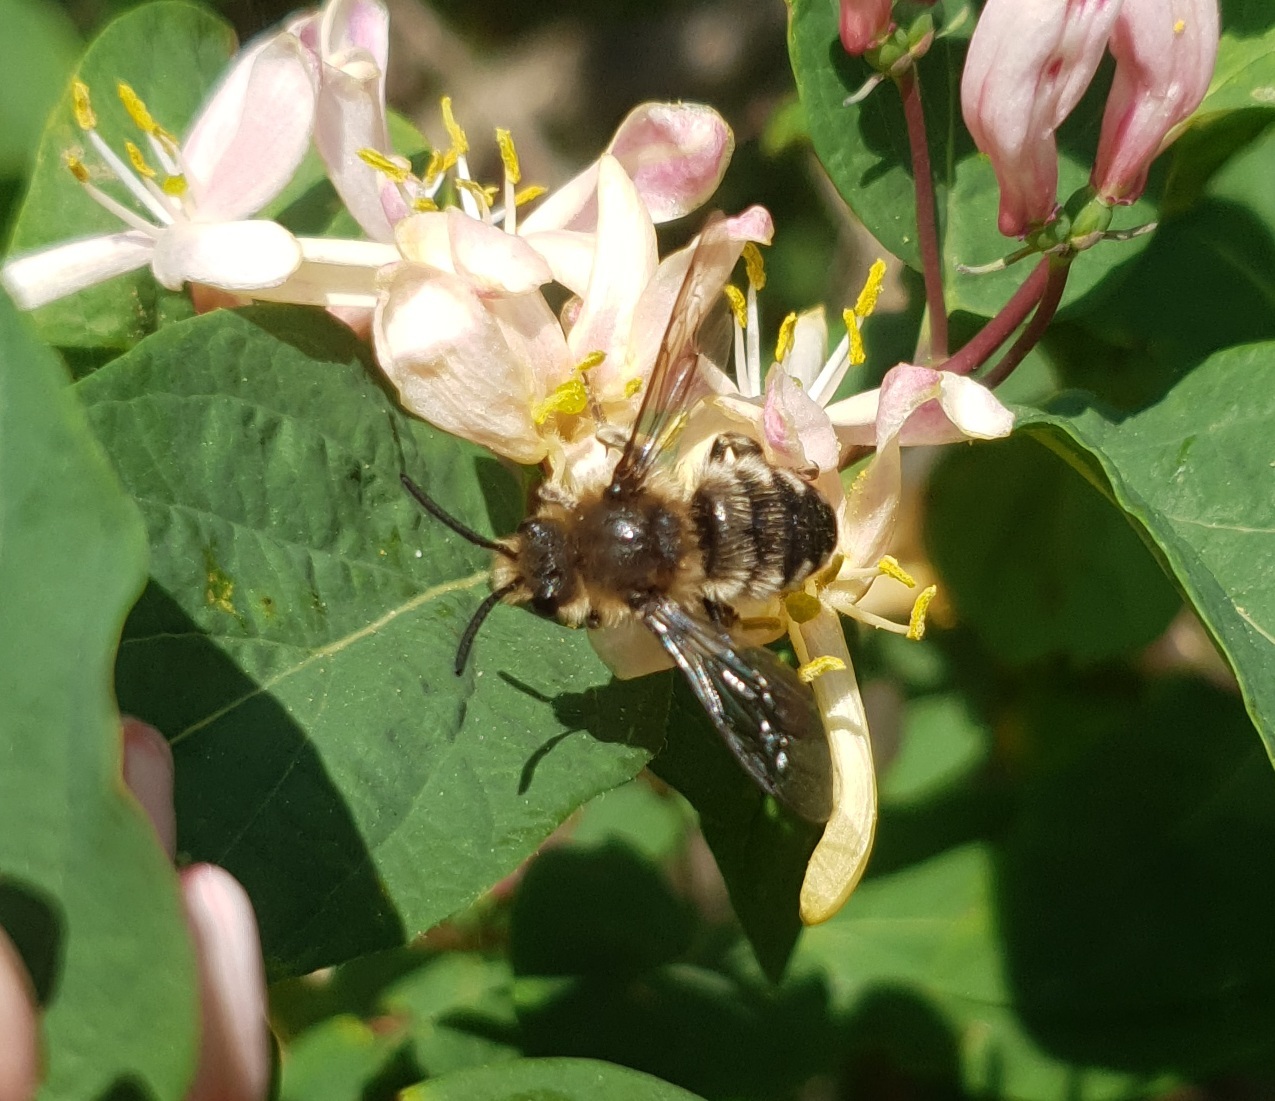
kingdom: Animalia
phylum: Arthropoda
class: Insecta
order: Hymenoptera
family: Apidae
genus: Melecta
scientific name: Melecta albifrons
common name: Common mourning bee
